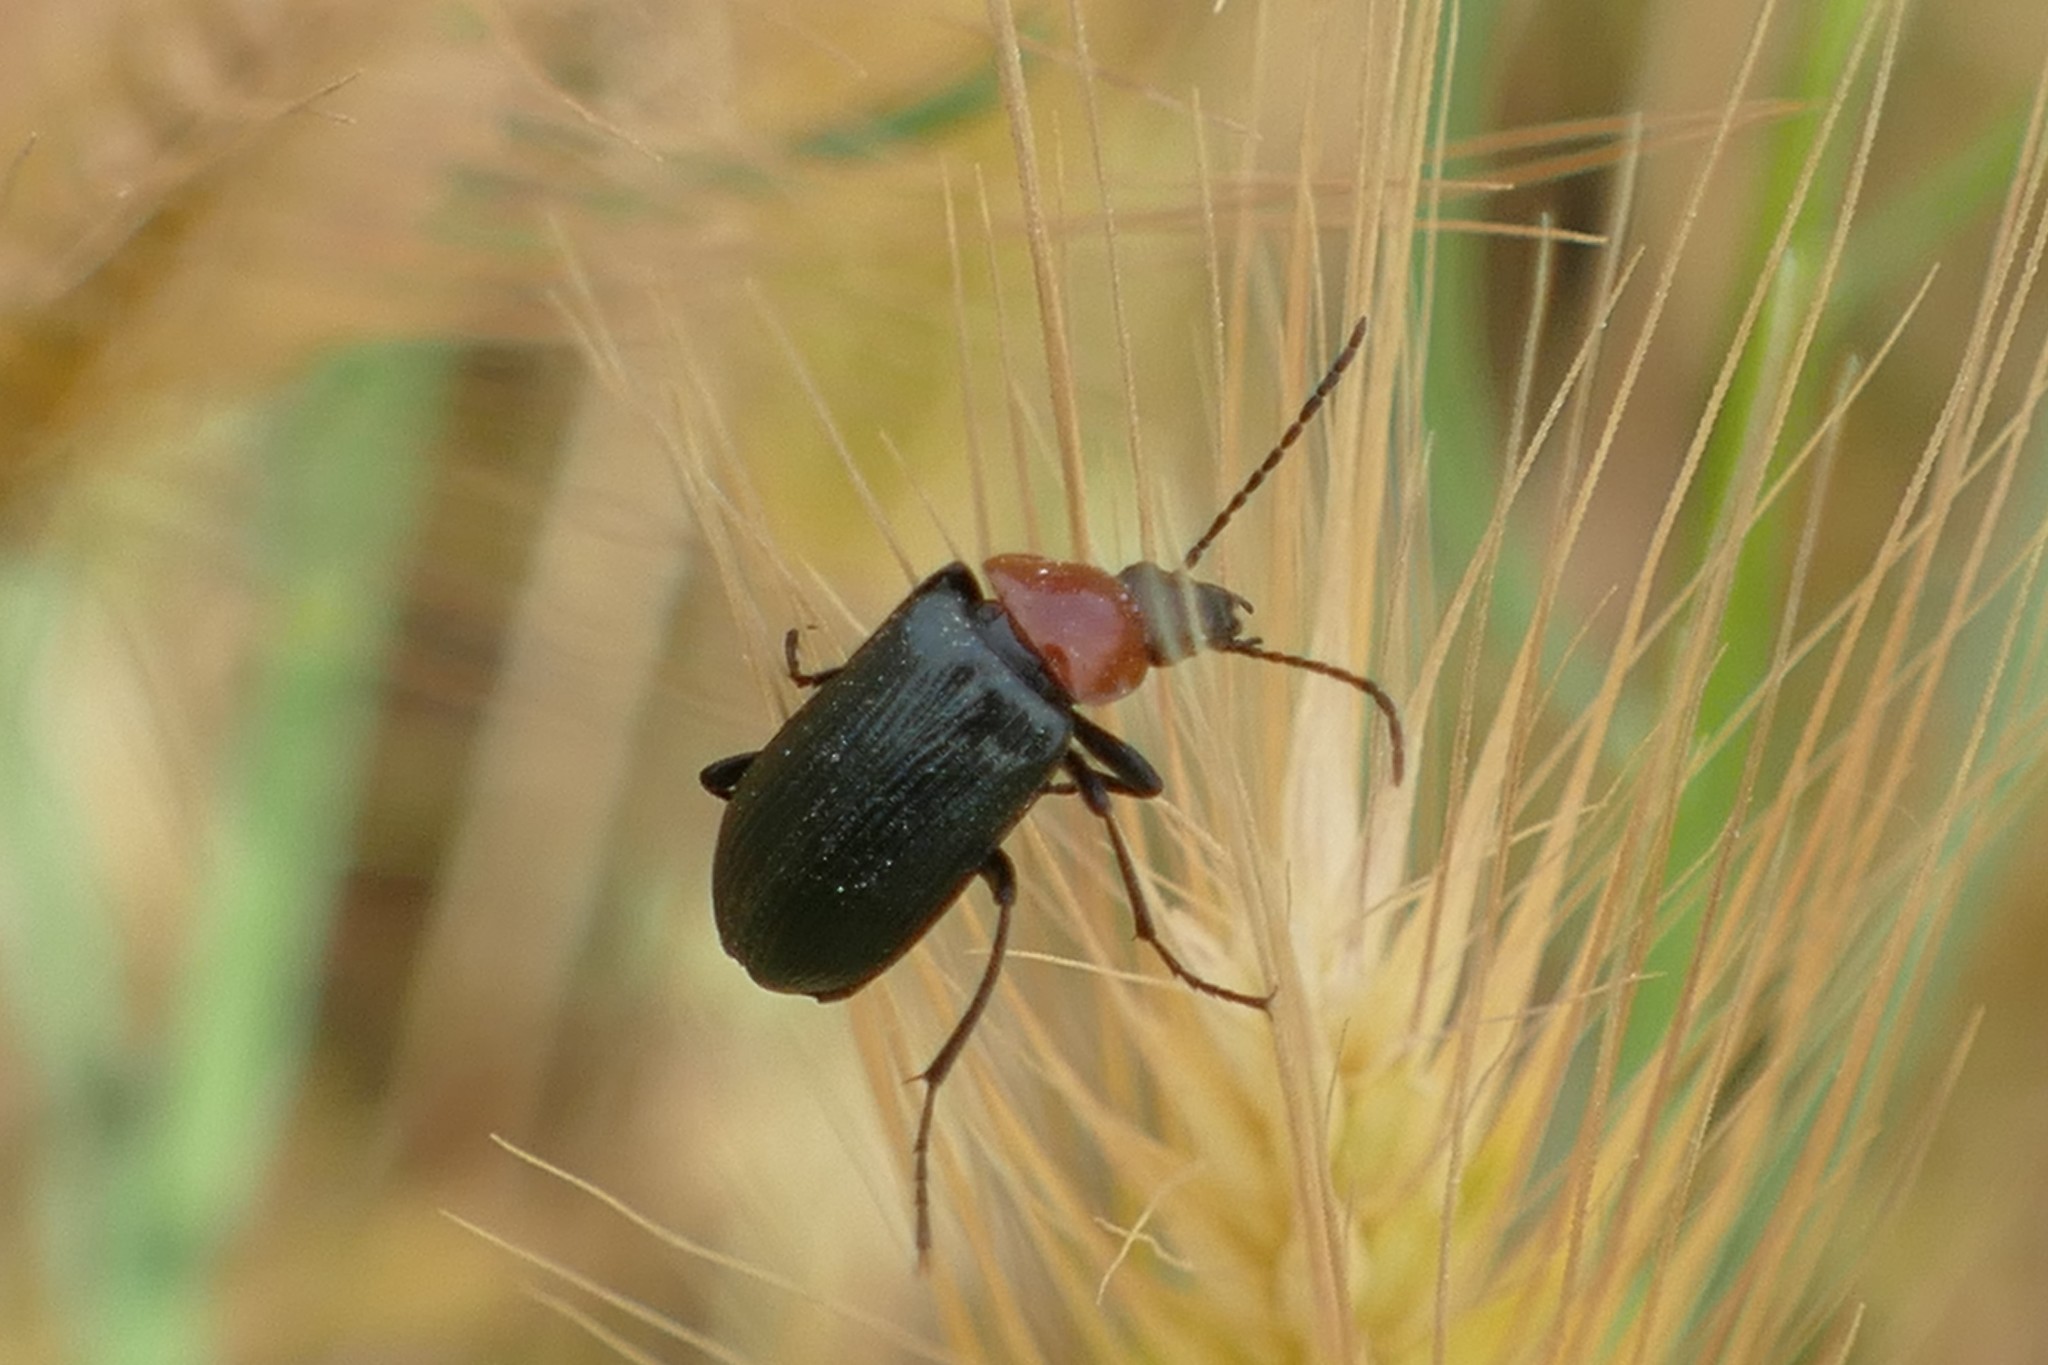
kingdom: Animalia
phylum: Arthropoda
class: Insecta
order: Coleoptera
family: Tenebrionidae
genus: Heliotaurus
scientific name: Heliotaurus ruficollis
